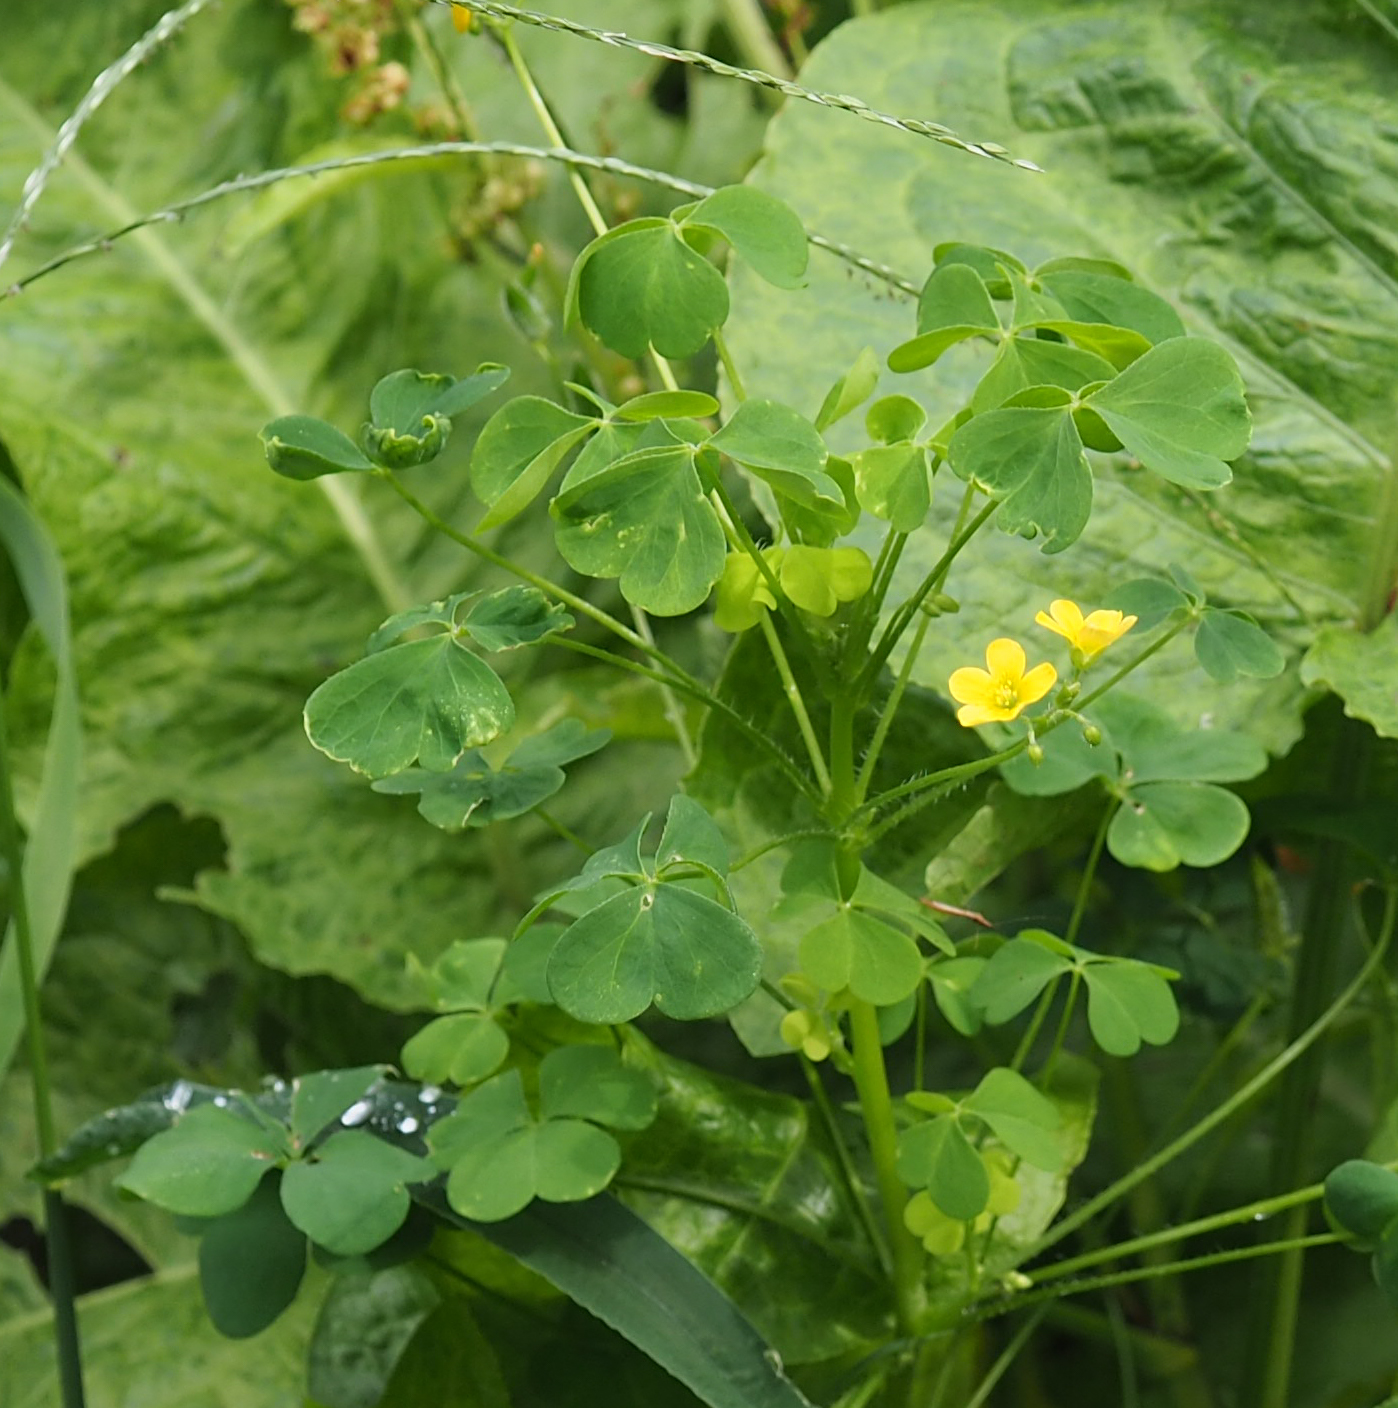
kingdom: Plantae
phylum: Tracheophyta
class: Magnoliopsida
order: Oxalidales
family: Oxalidaceae
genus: Oxalis
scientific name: Oxalis stricta
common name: Upright yellow-sorrel
